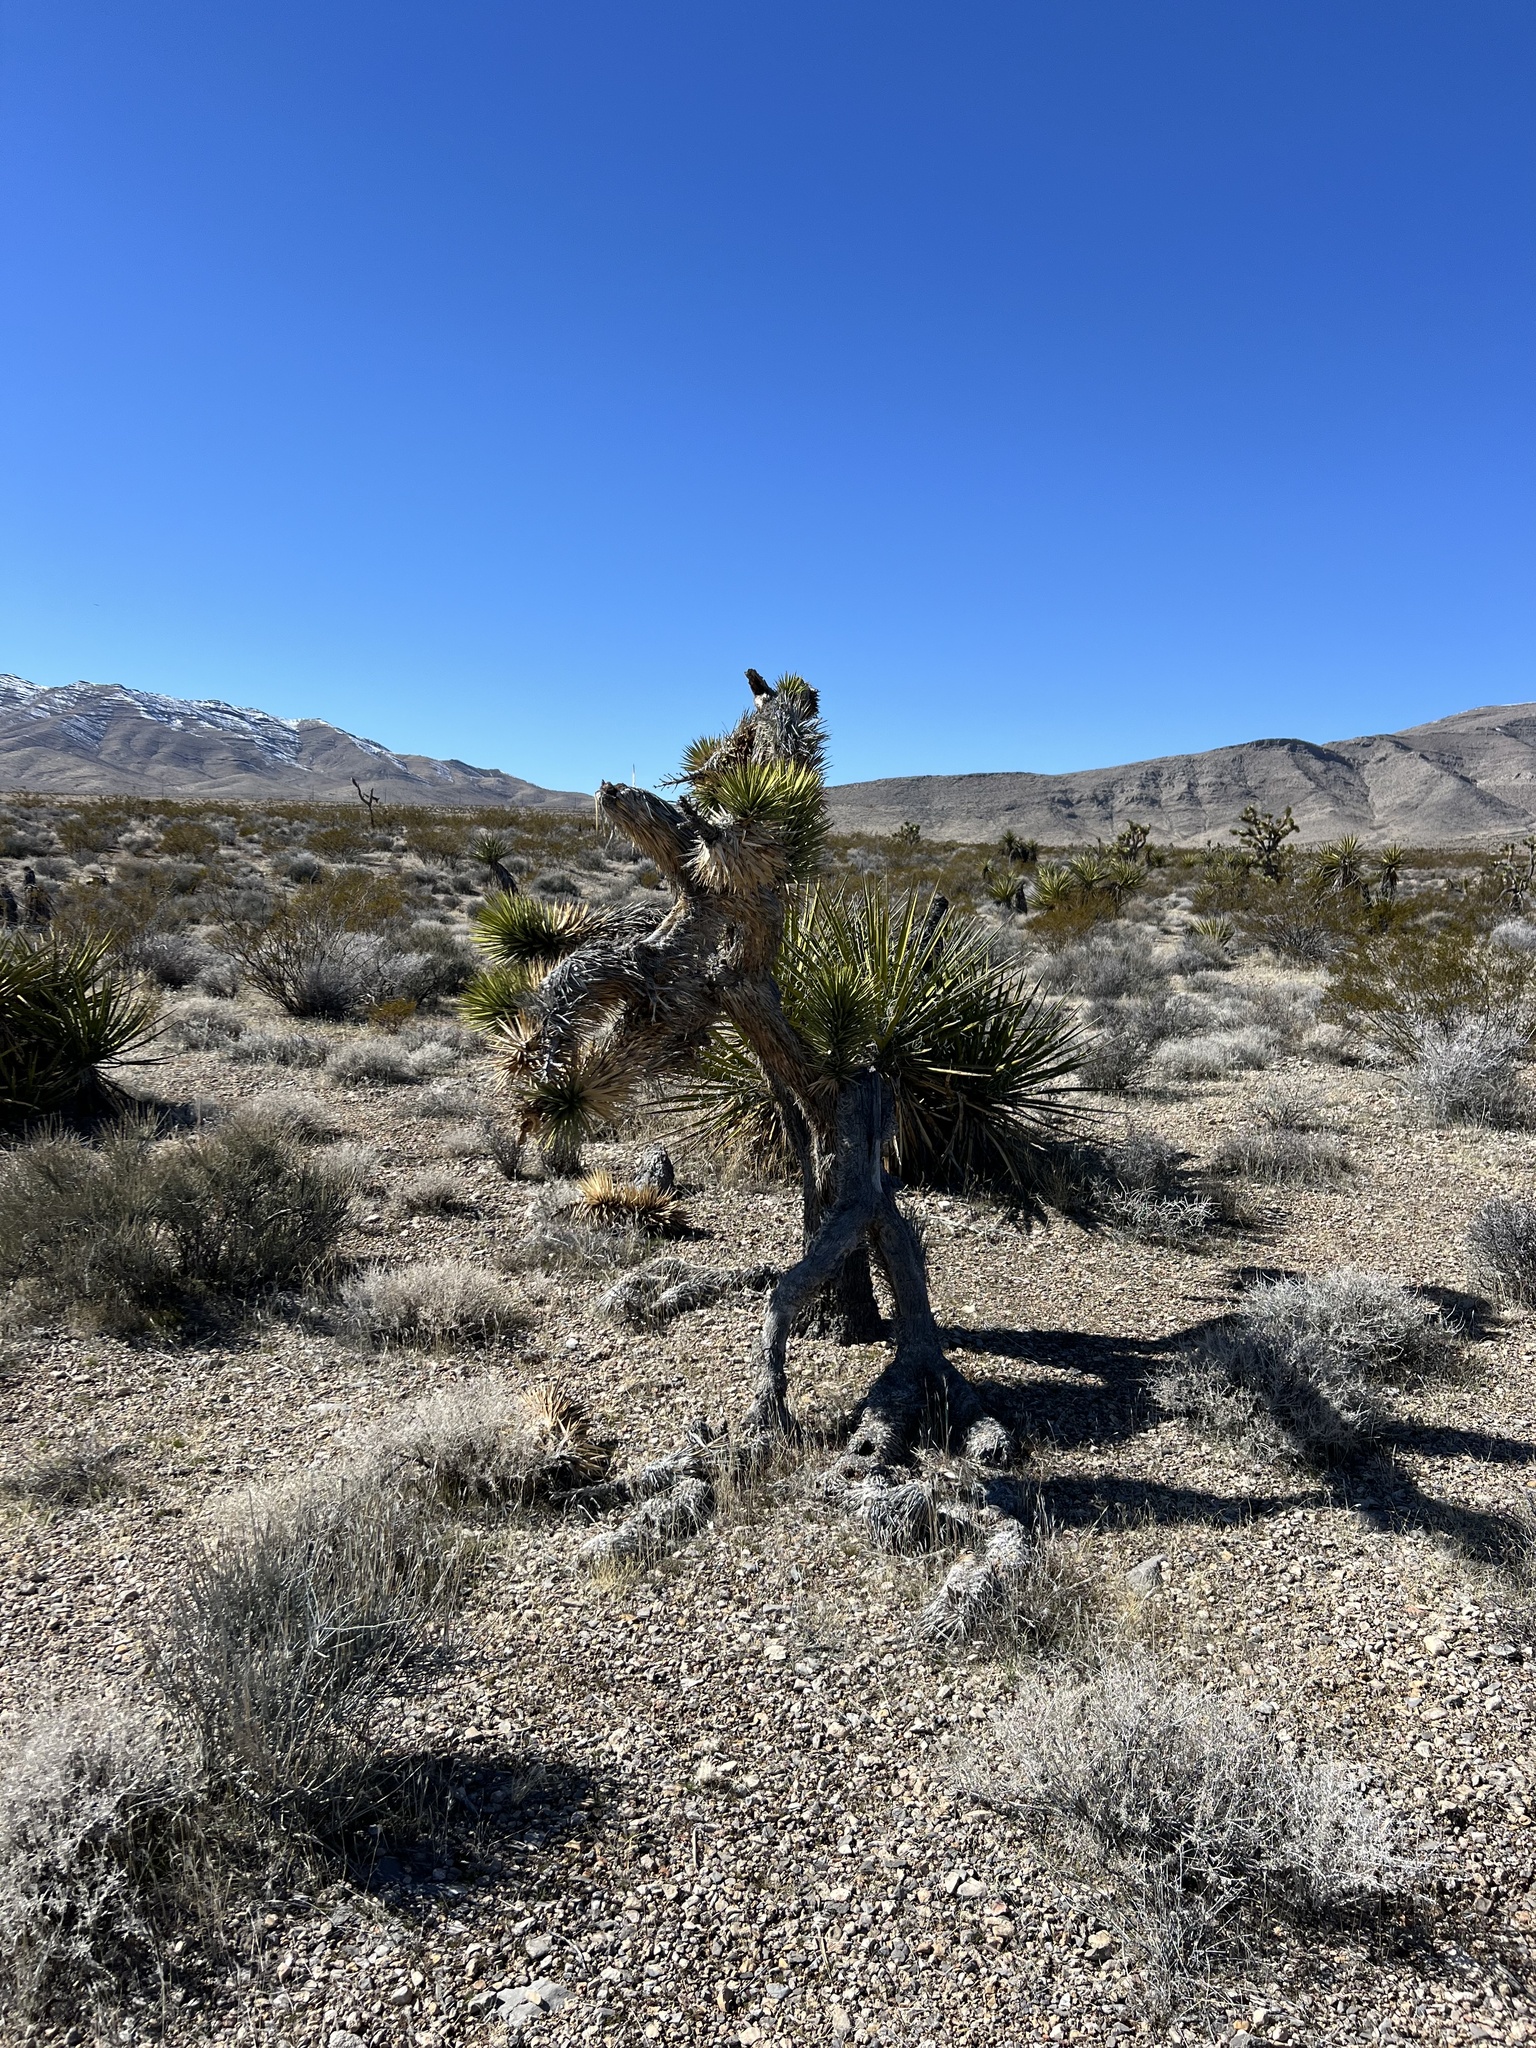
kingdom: Plantae
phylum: Tracheophyta
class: Liliopsida
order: Asparagales
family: Asparagaceae
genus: Yucca
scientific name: Yucca brevifolia
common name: Joshua tree
